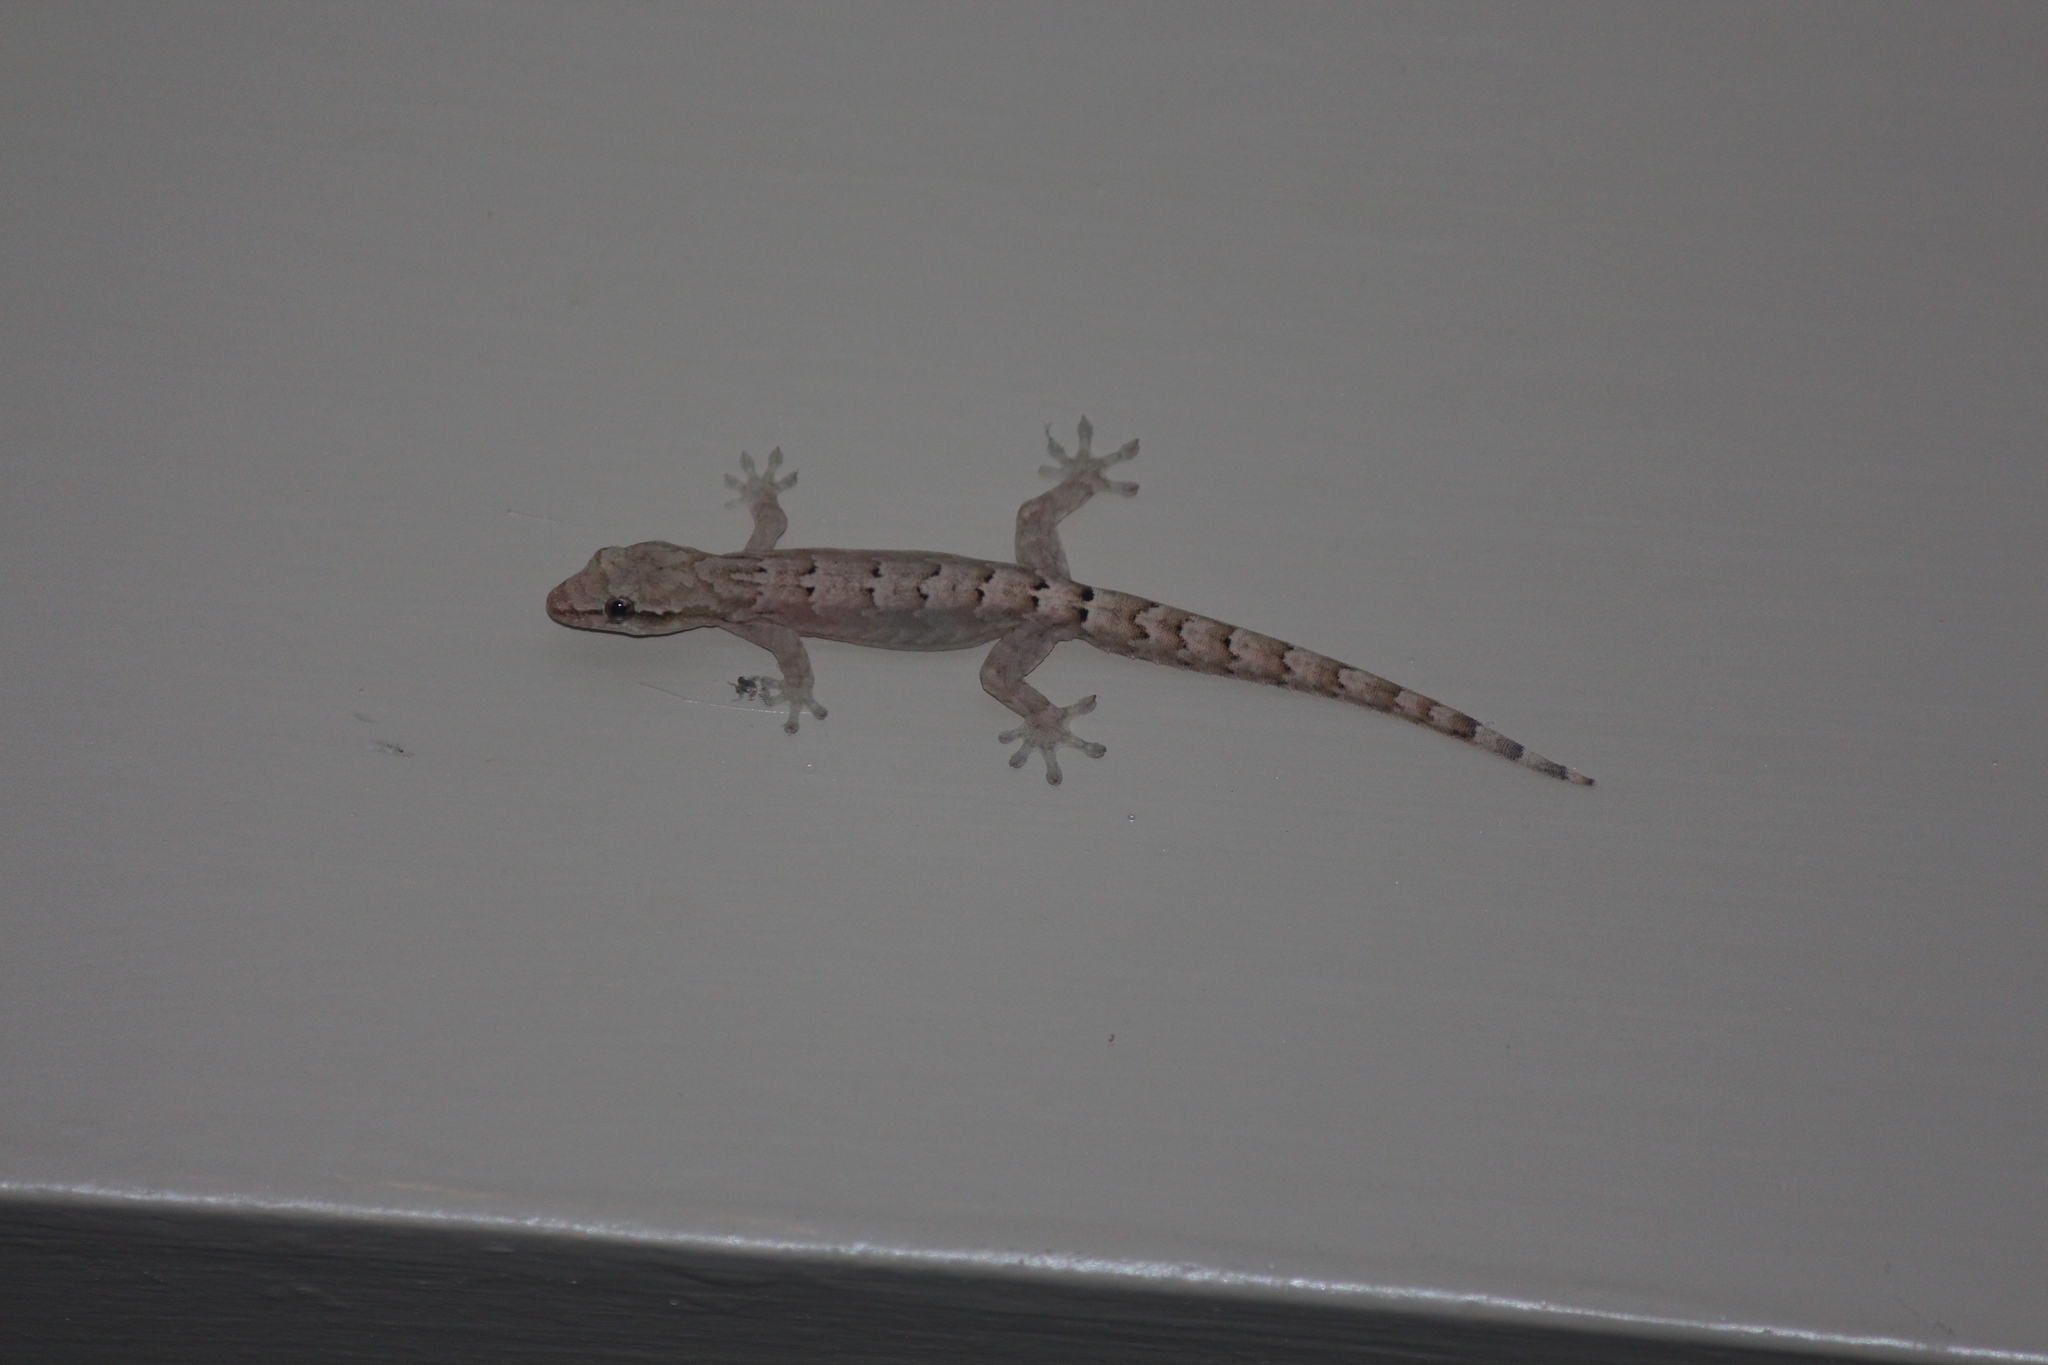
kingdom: Animalia
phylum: Chordata
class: Squamata
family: Gekkonidae
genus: Lepidodactylus
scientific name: Lepidodactylus lugubris
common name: Mourning gecko
